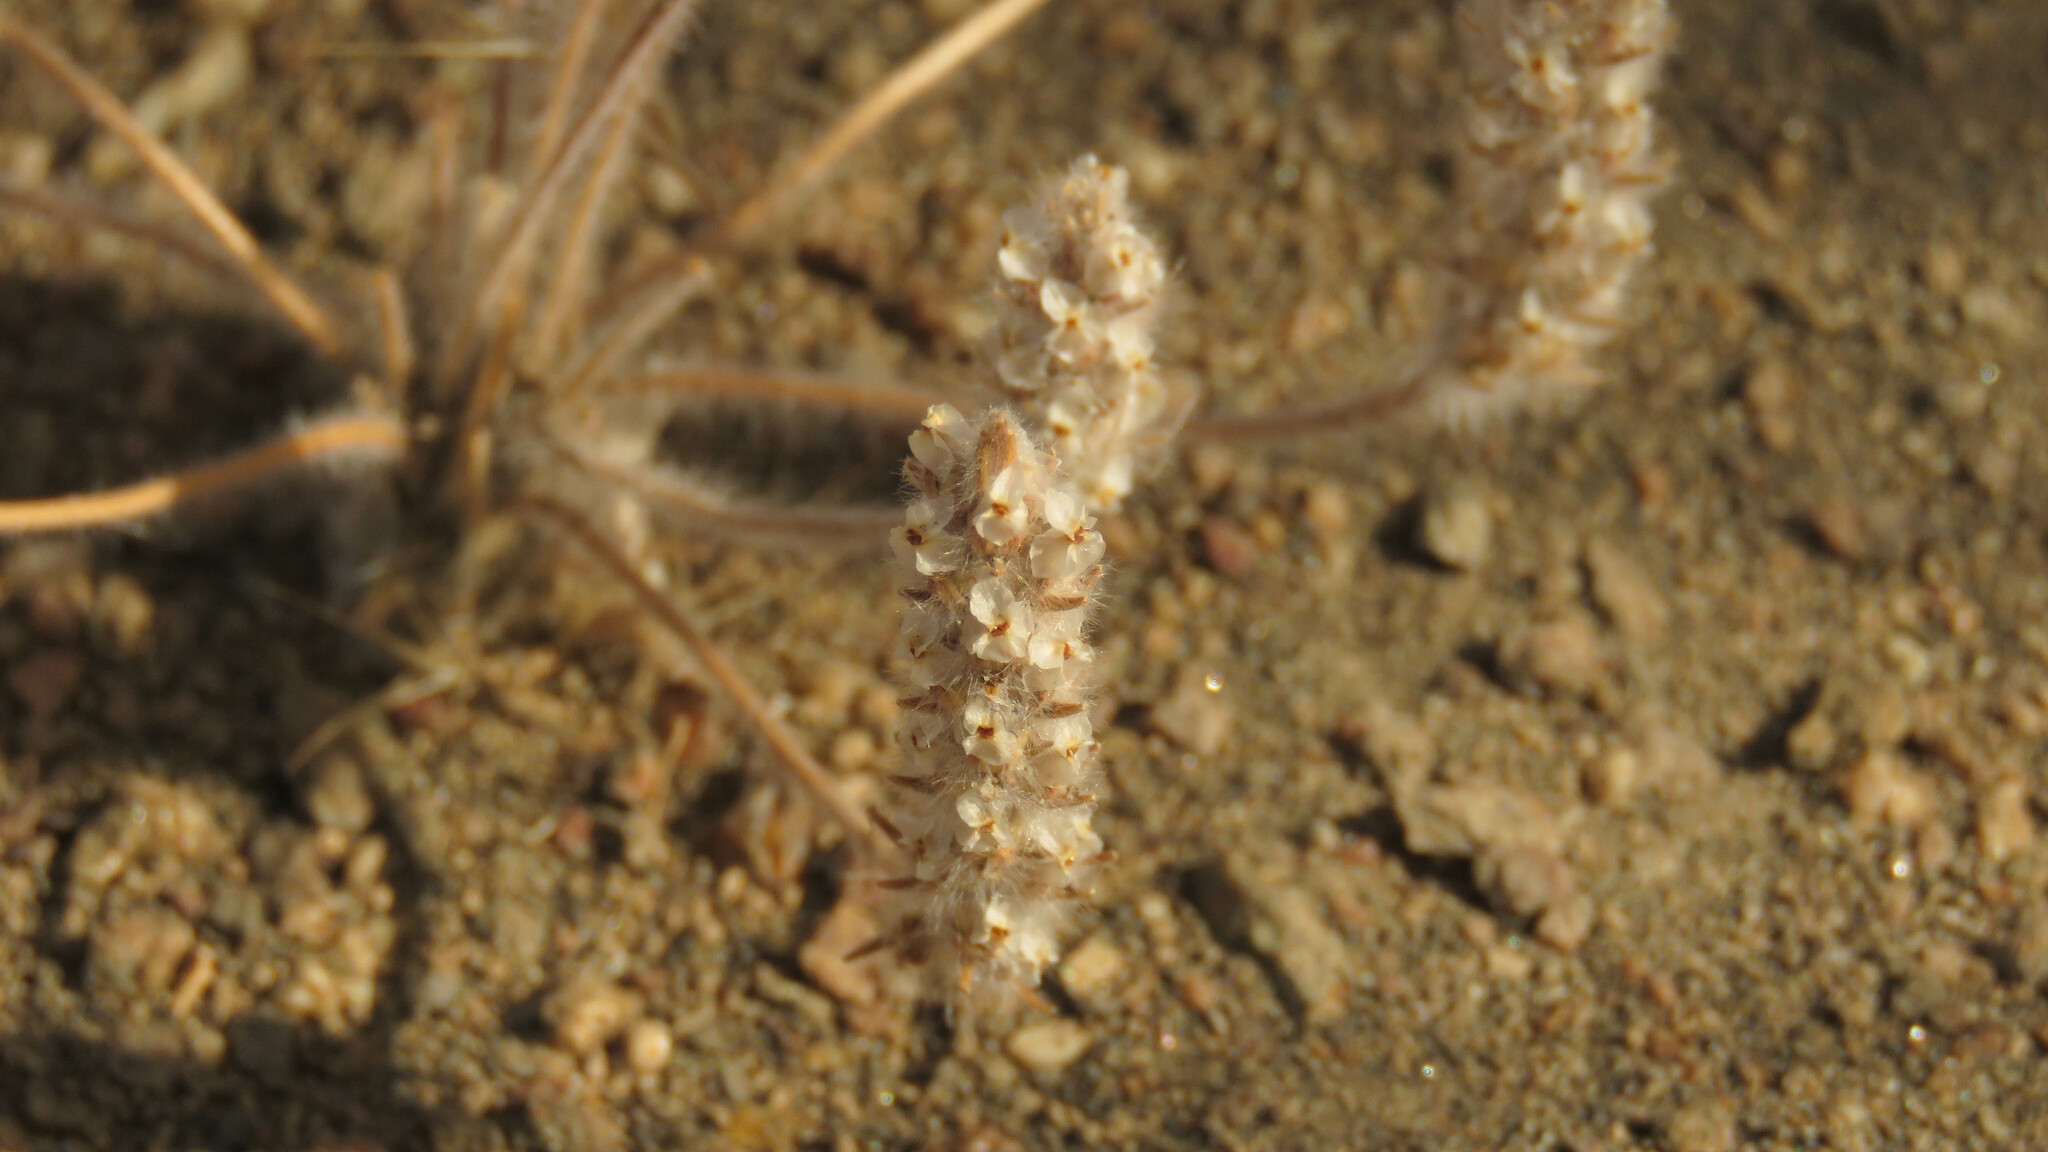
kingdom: Plantae
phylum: Tracheophyta
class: Magnoliopsida
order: Lamiales
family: Plantaginaceae
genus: Plantago
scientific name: Plantago patagonica
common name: Patagonia indian-wheat
